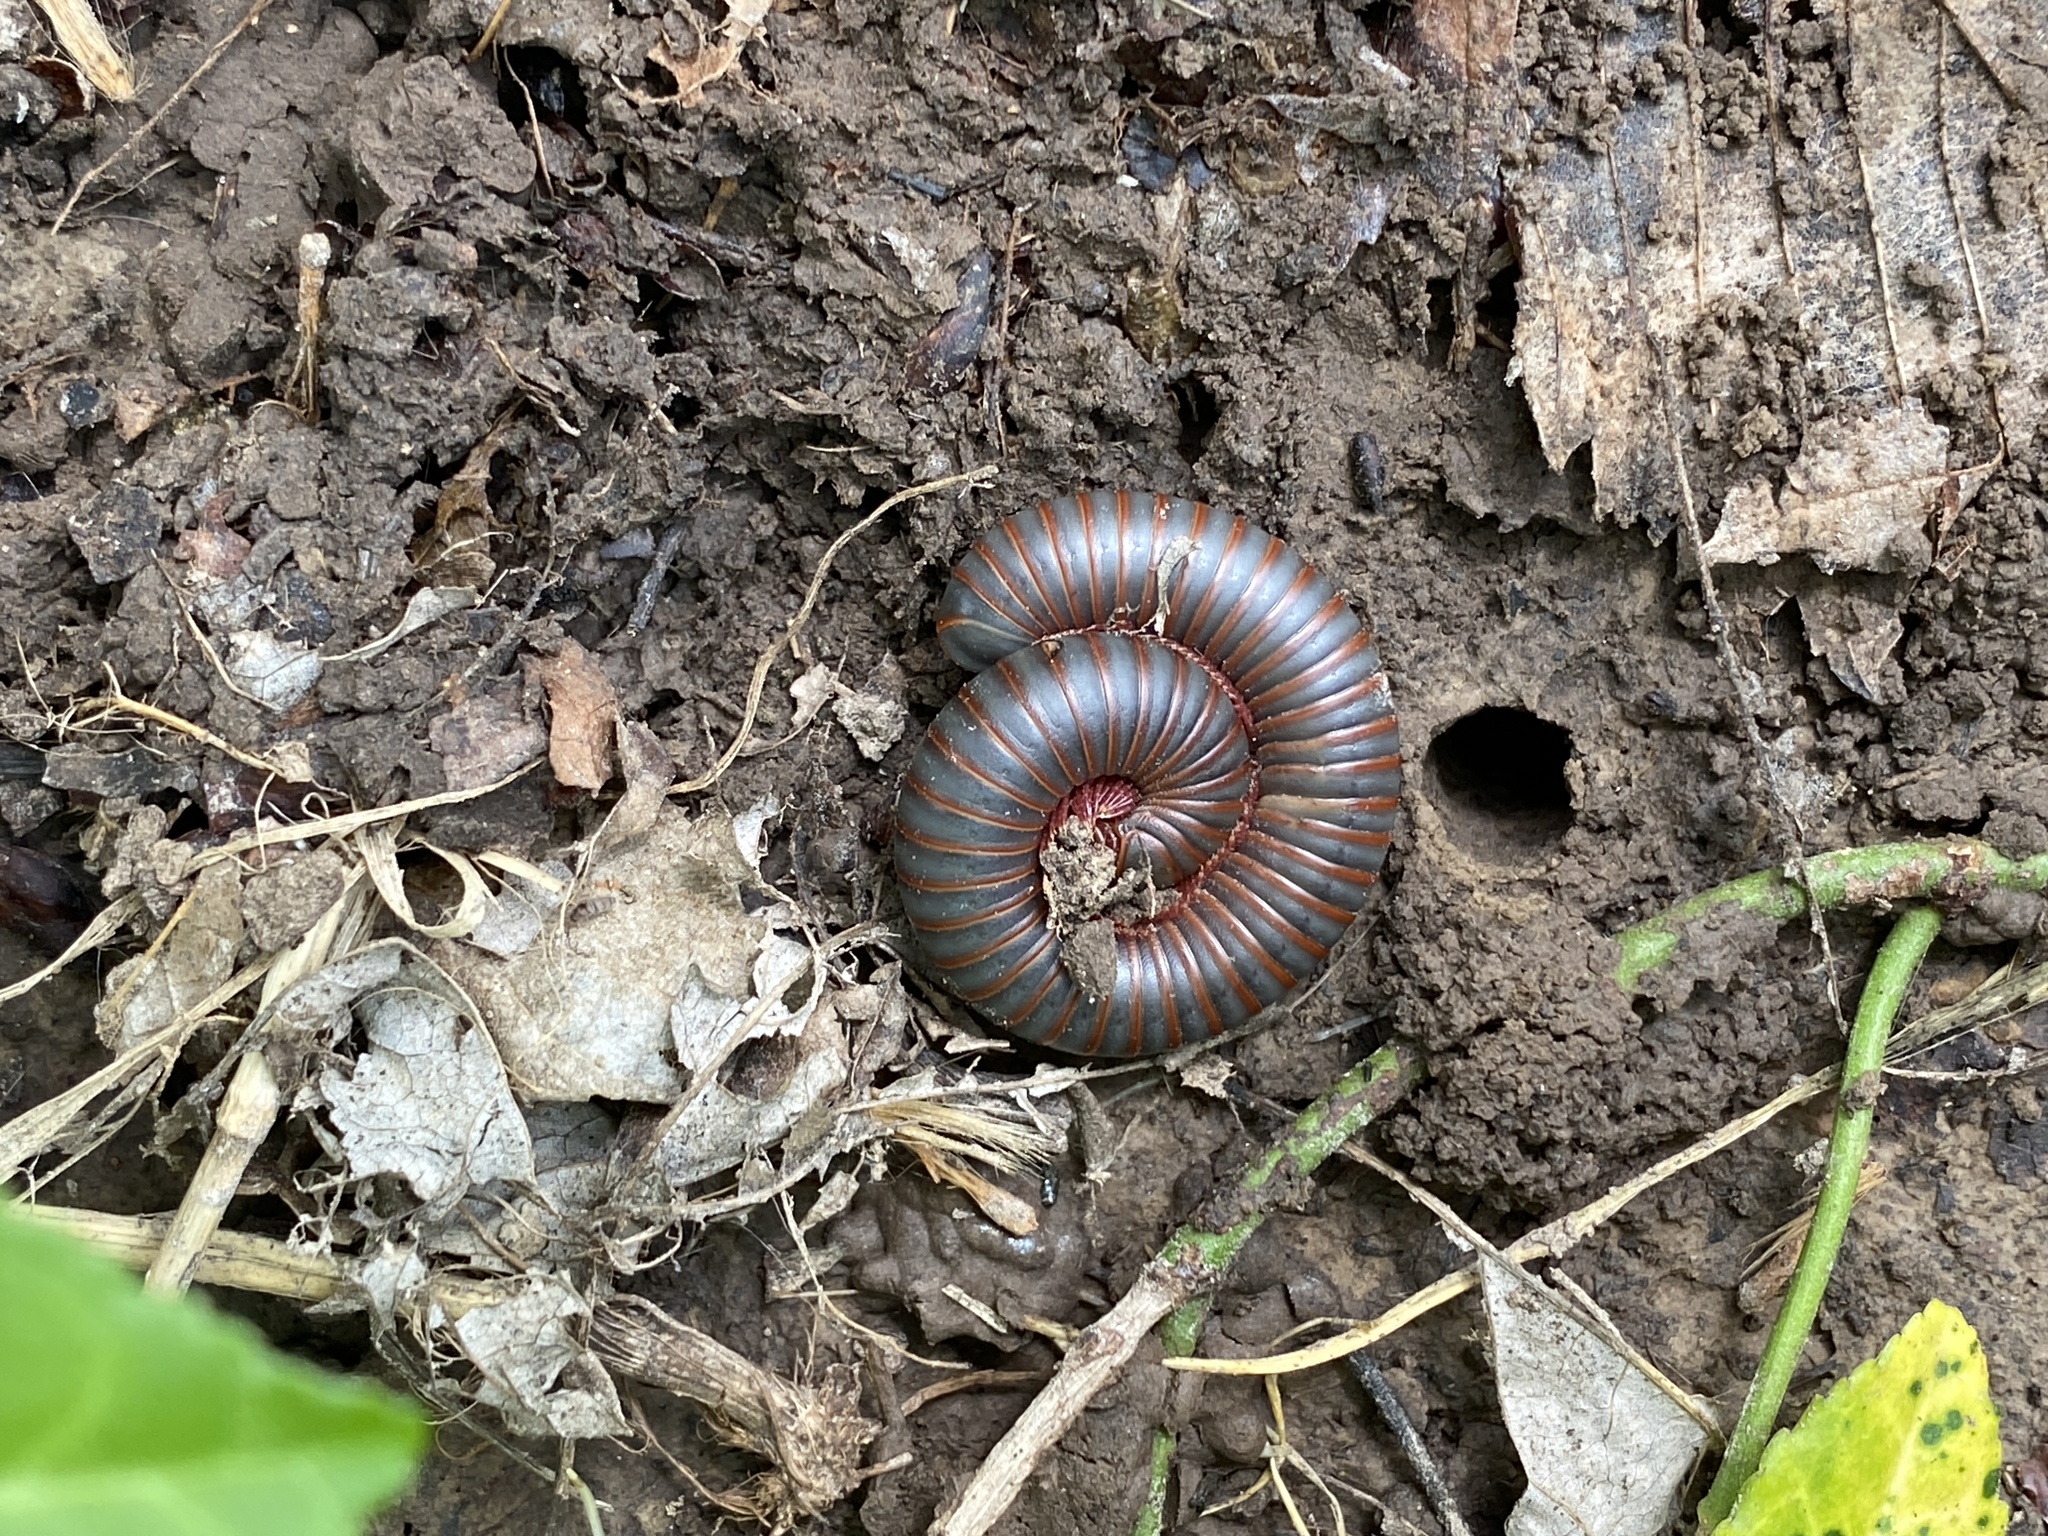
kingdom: Animalia
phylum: Arthropoda
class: Diplopoda
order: Spirobolida
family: Spirobolidae
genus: Narceus
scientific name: Narceus americanus
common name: American giant millipede
